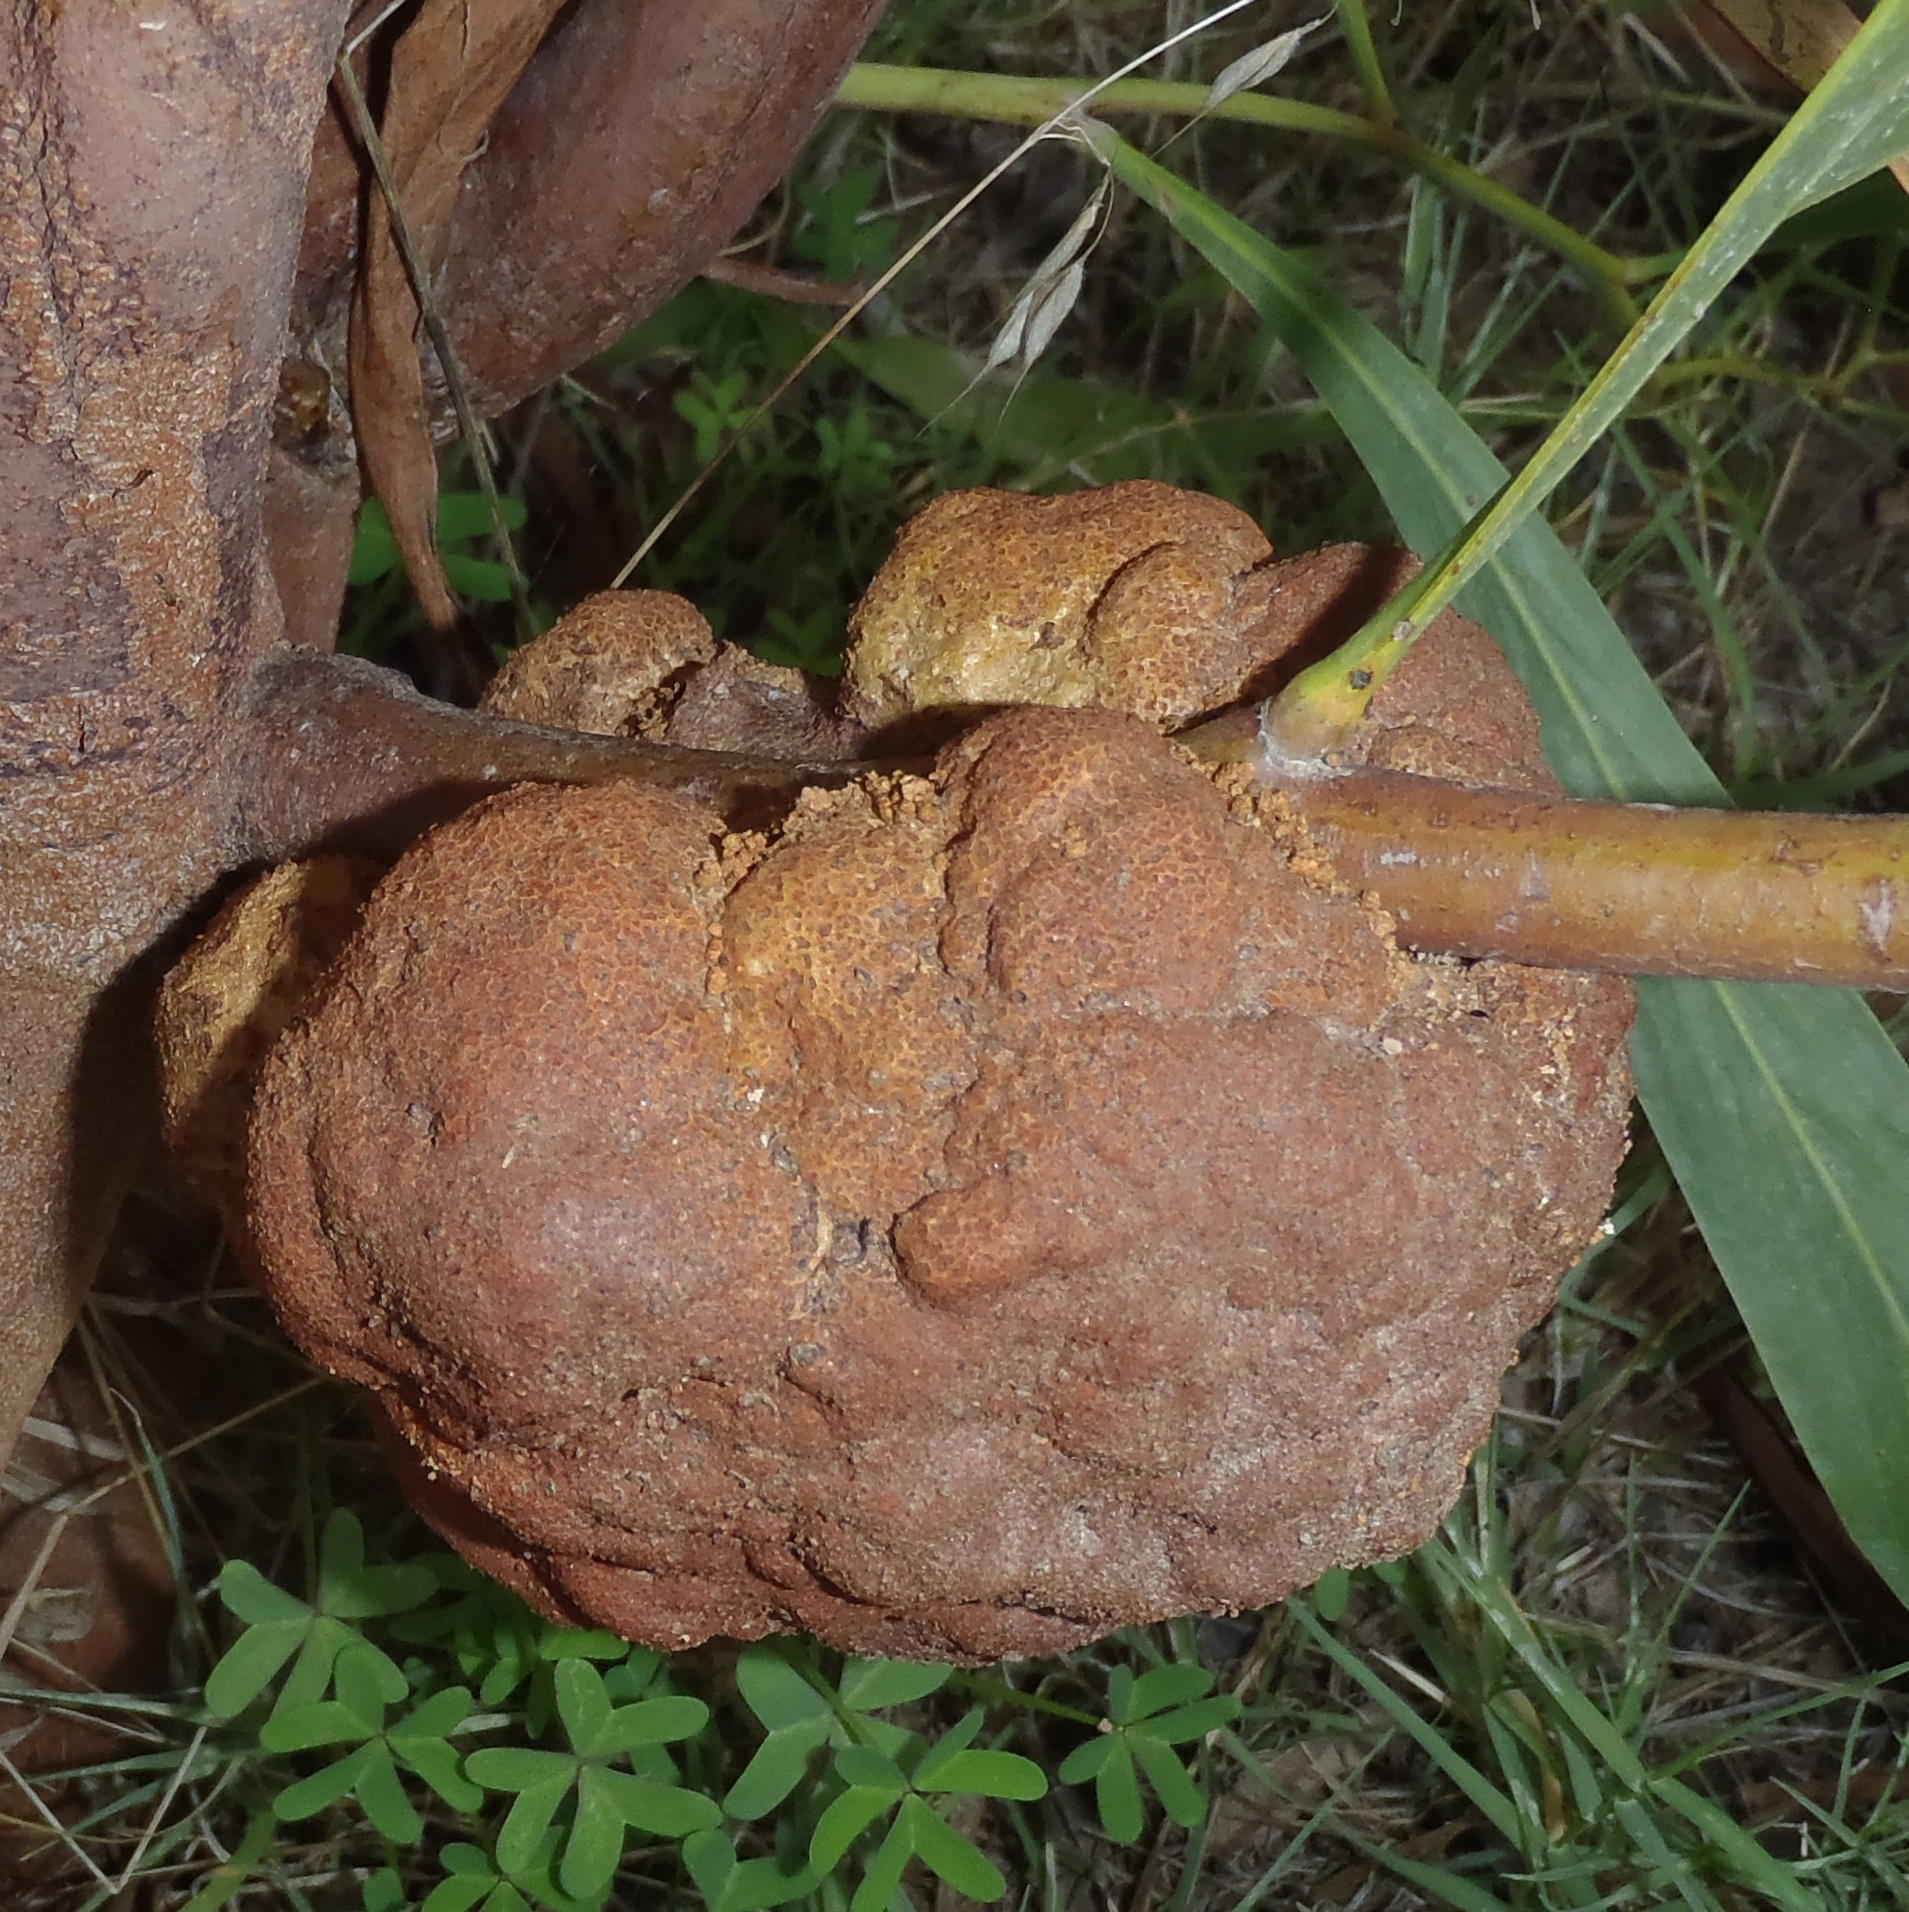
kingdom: Fungi
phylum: Basidiomycota
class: Pucciniomycetes
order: Pucciniales
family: Uromycladiaceae
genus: Uromycladium
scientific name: Uromycladium morrisii
